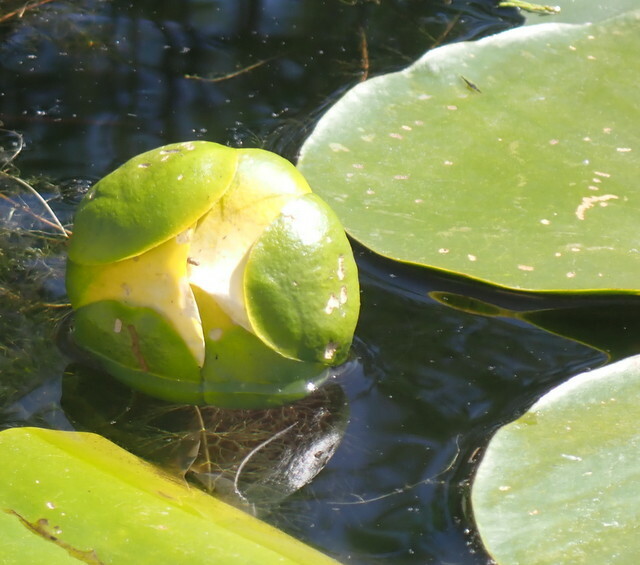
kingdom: Plantae
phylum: Tracheophyta
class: Magnoliopsida
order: Nymphaeales
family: Nymphaeaceae
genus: Nuphar
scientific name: Nuphar advena
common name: Spatter-dock
